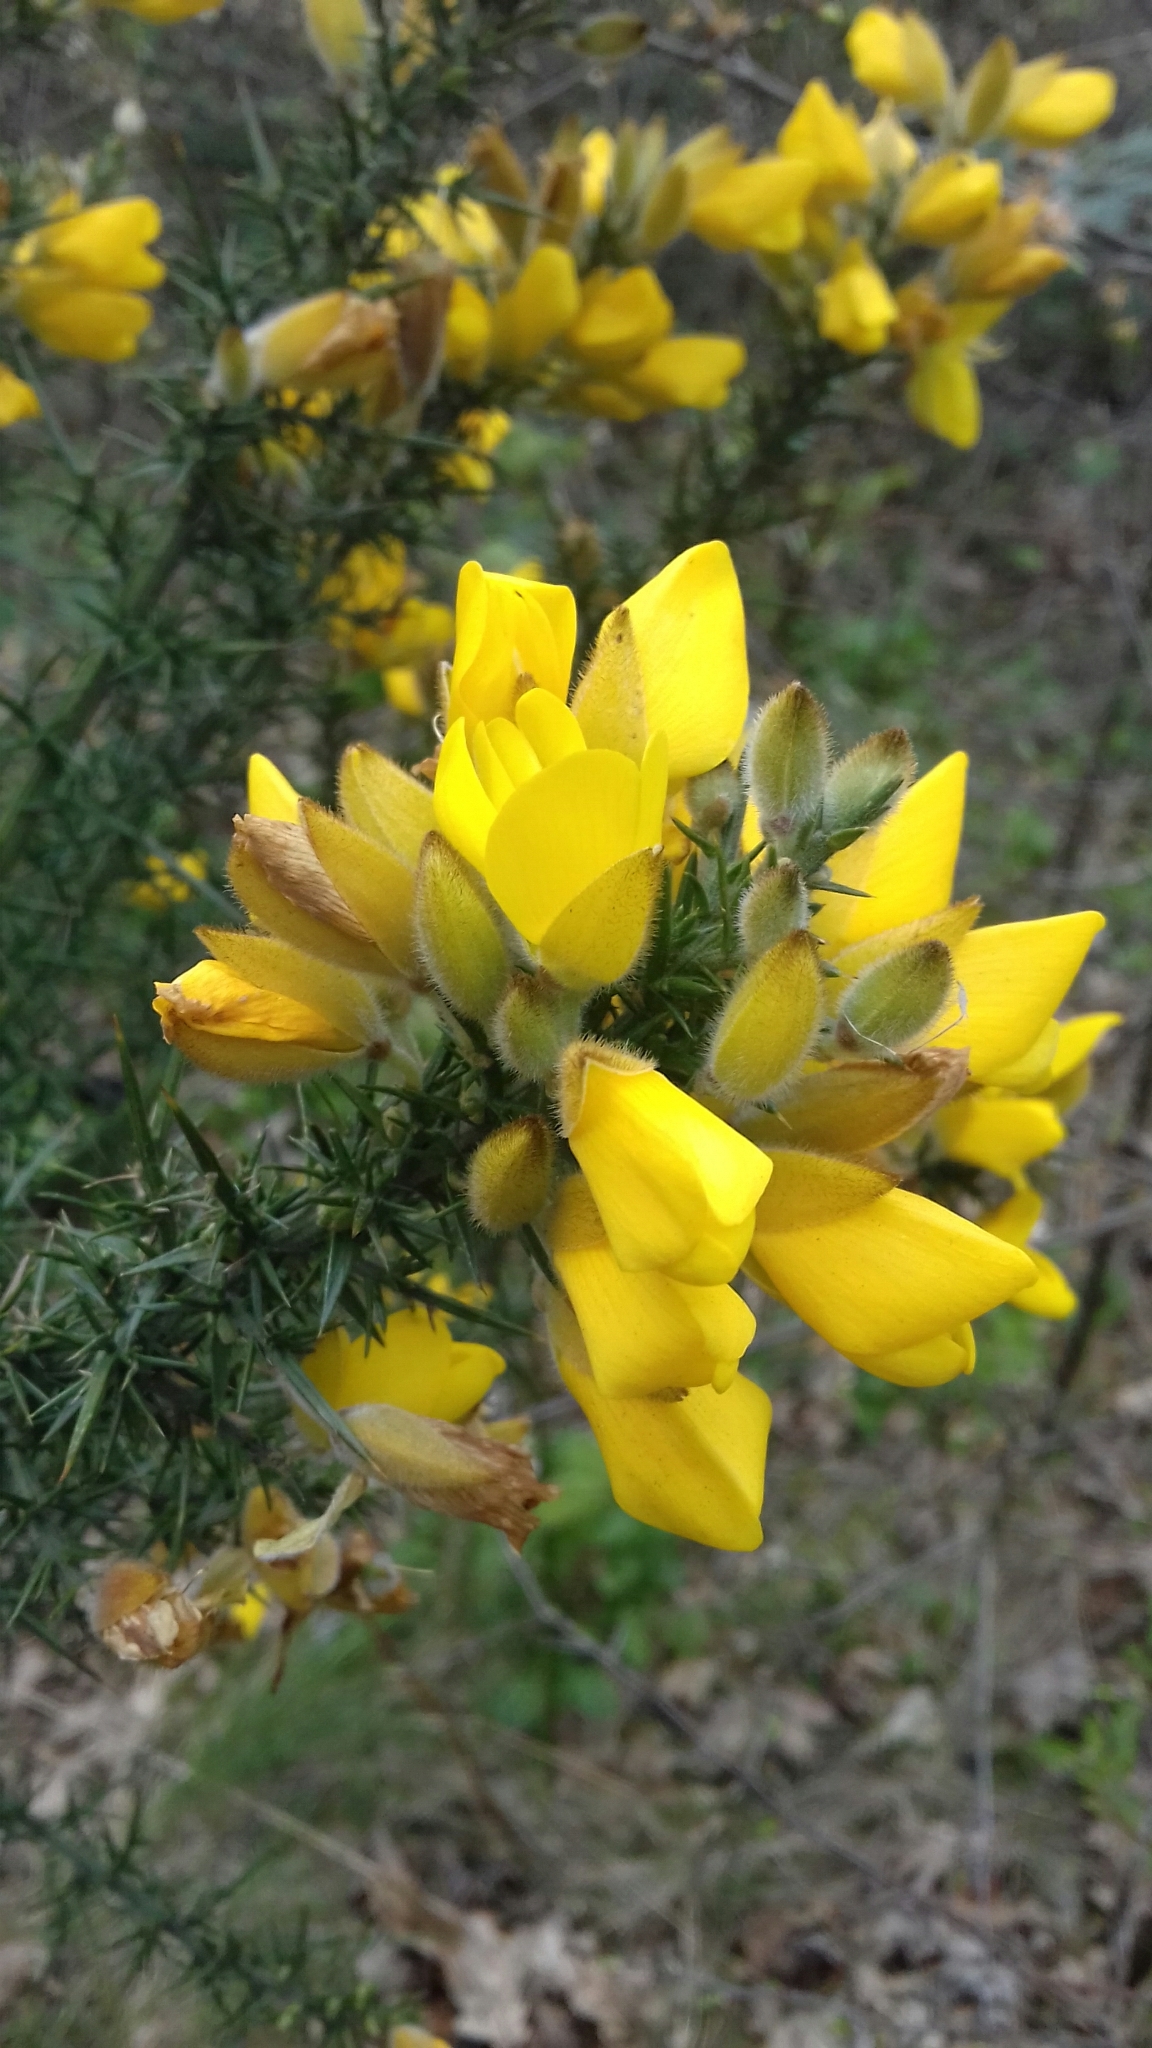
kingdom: Plantae
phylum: Tracheophyta
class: Magnoliopsida
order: Fabales
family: Fabaceae
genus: Ulex
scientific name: Ulex europaeus
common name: Common gorse
